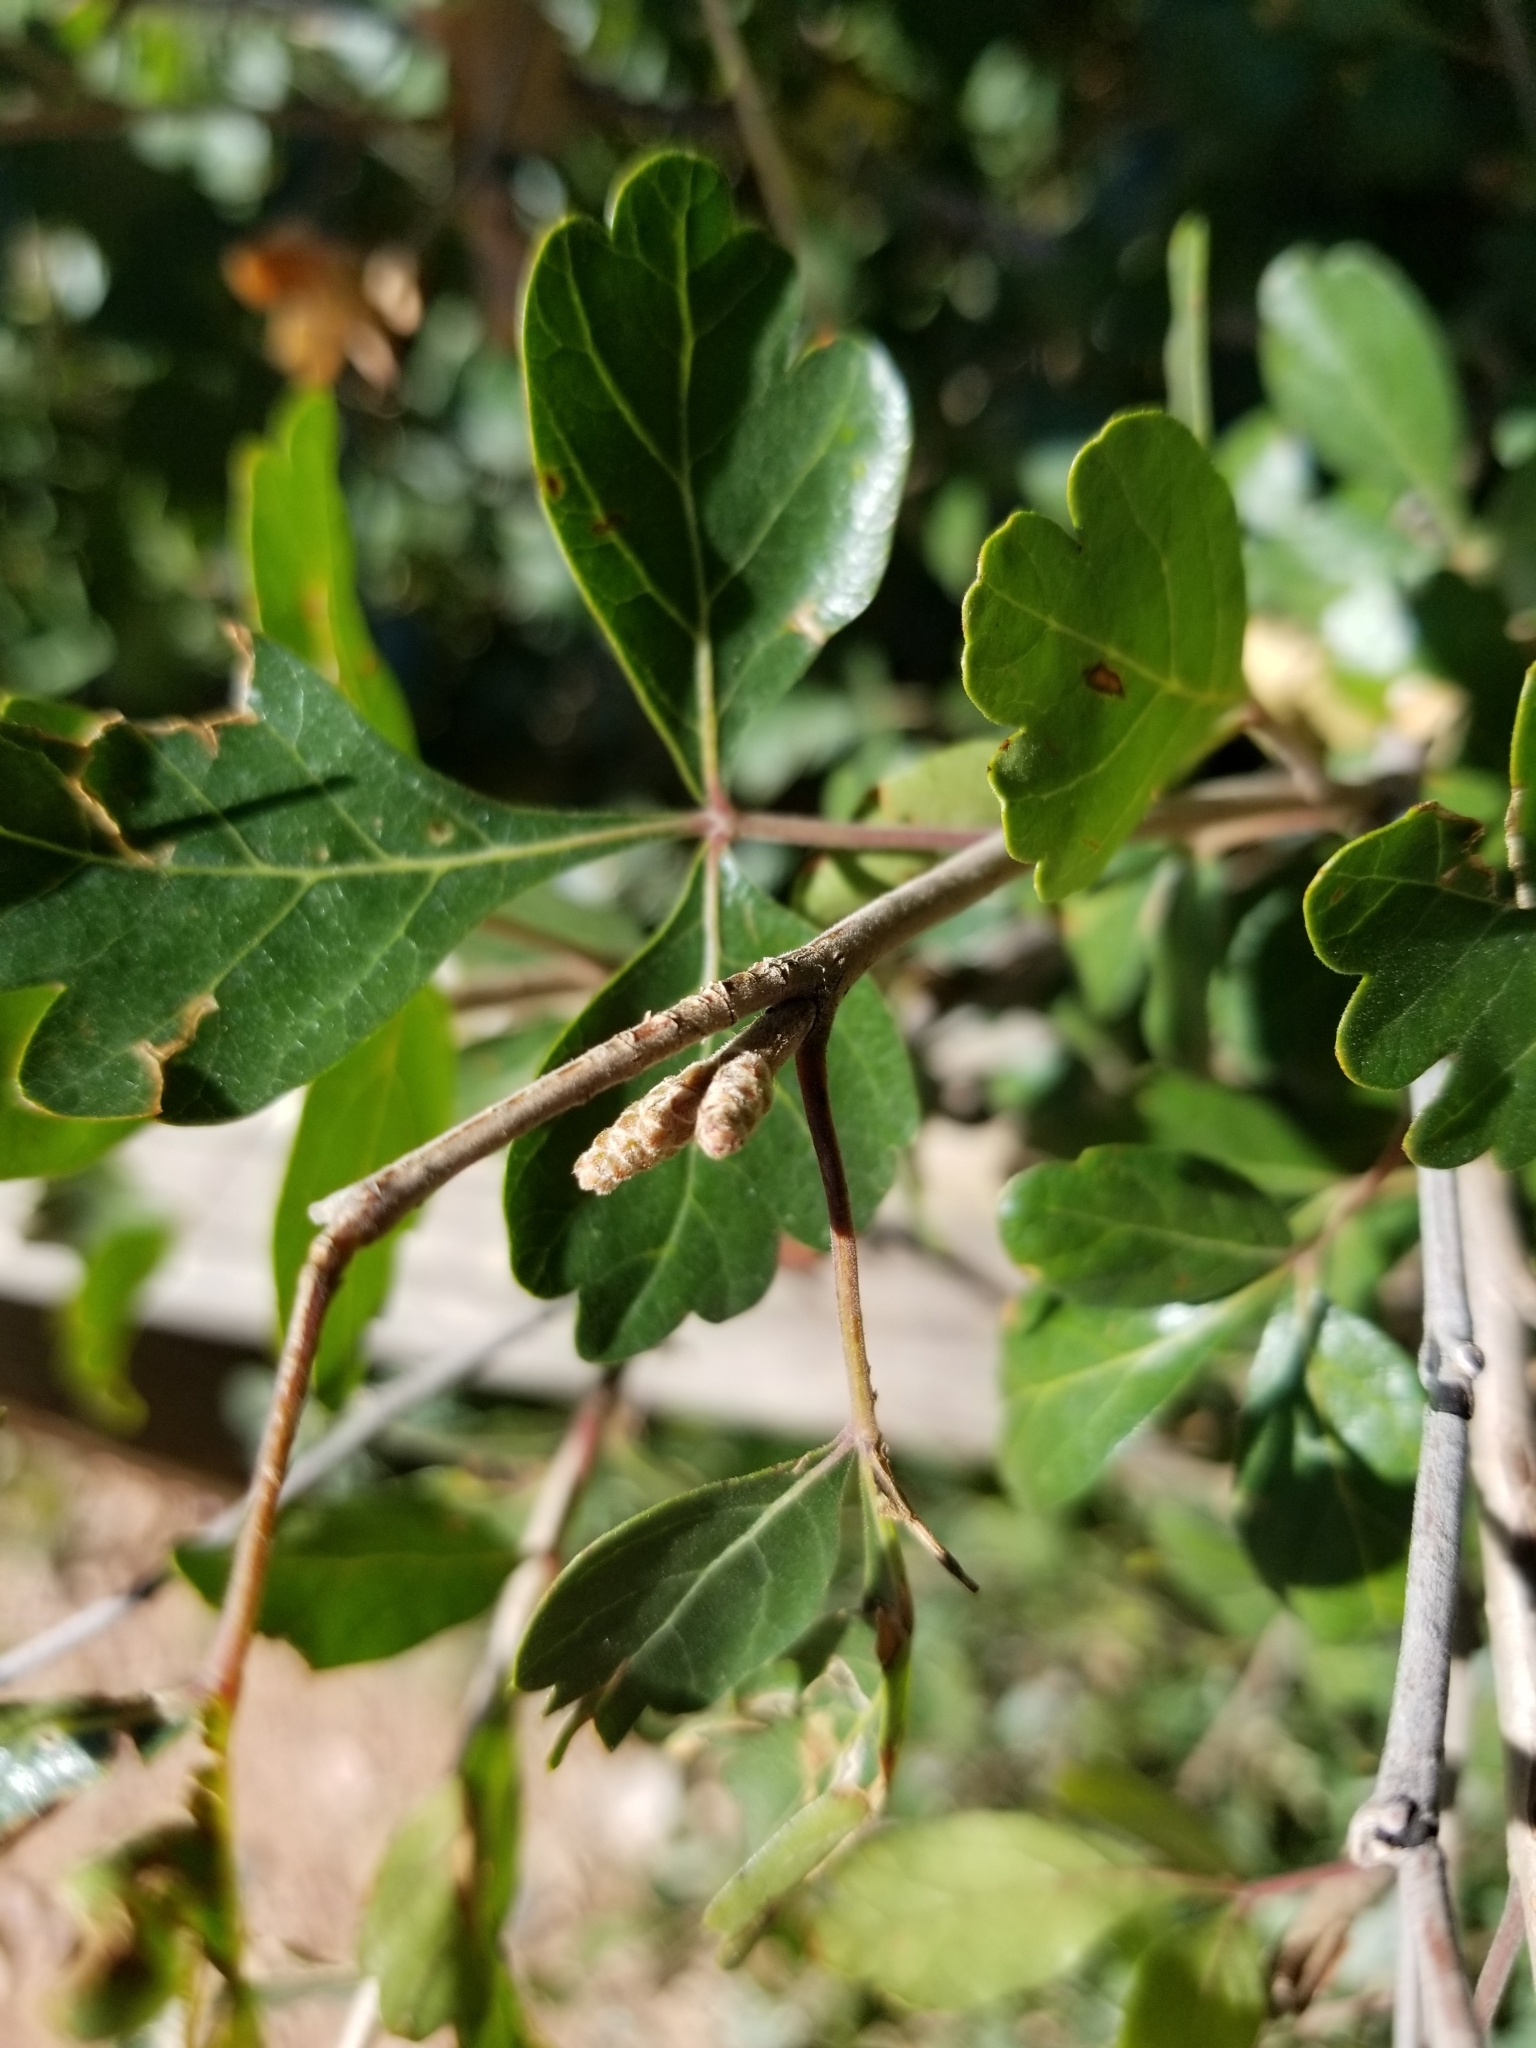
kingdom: Plantae
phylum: Tracheophyta
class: Magnoliopsida
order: Sapindales
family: Anacardiaceae
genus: Rhus
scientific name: Rhus aromatica
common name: Aromatic sumac
